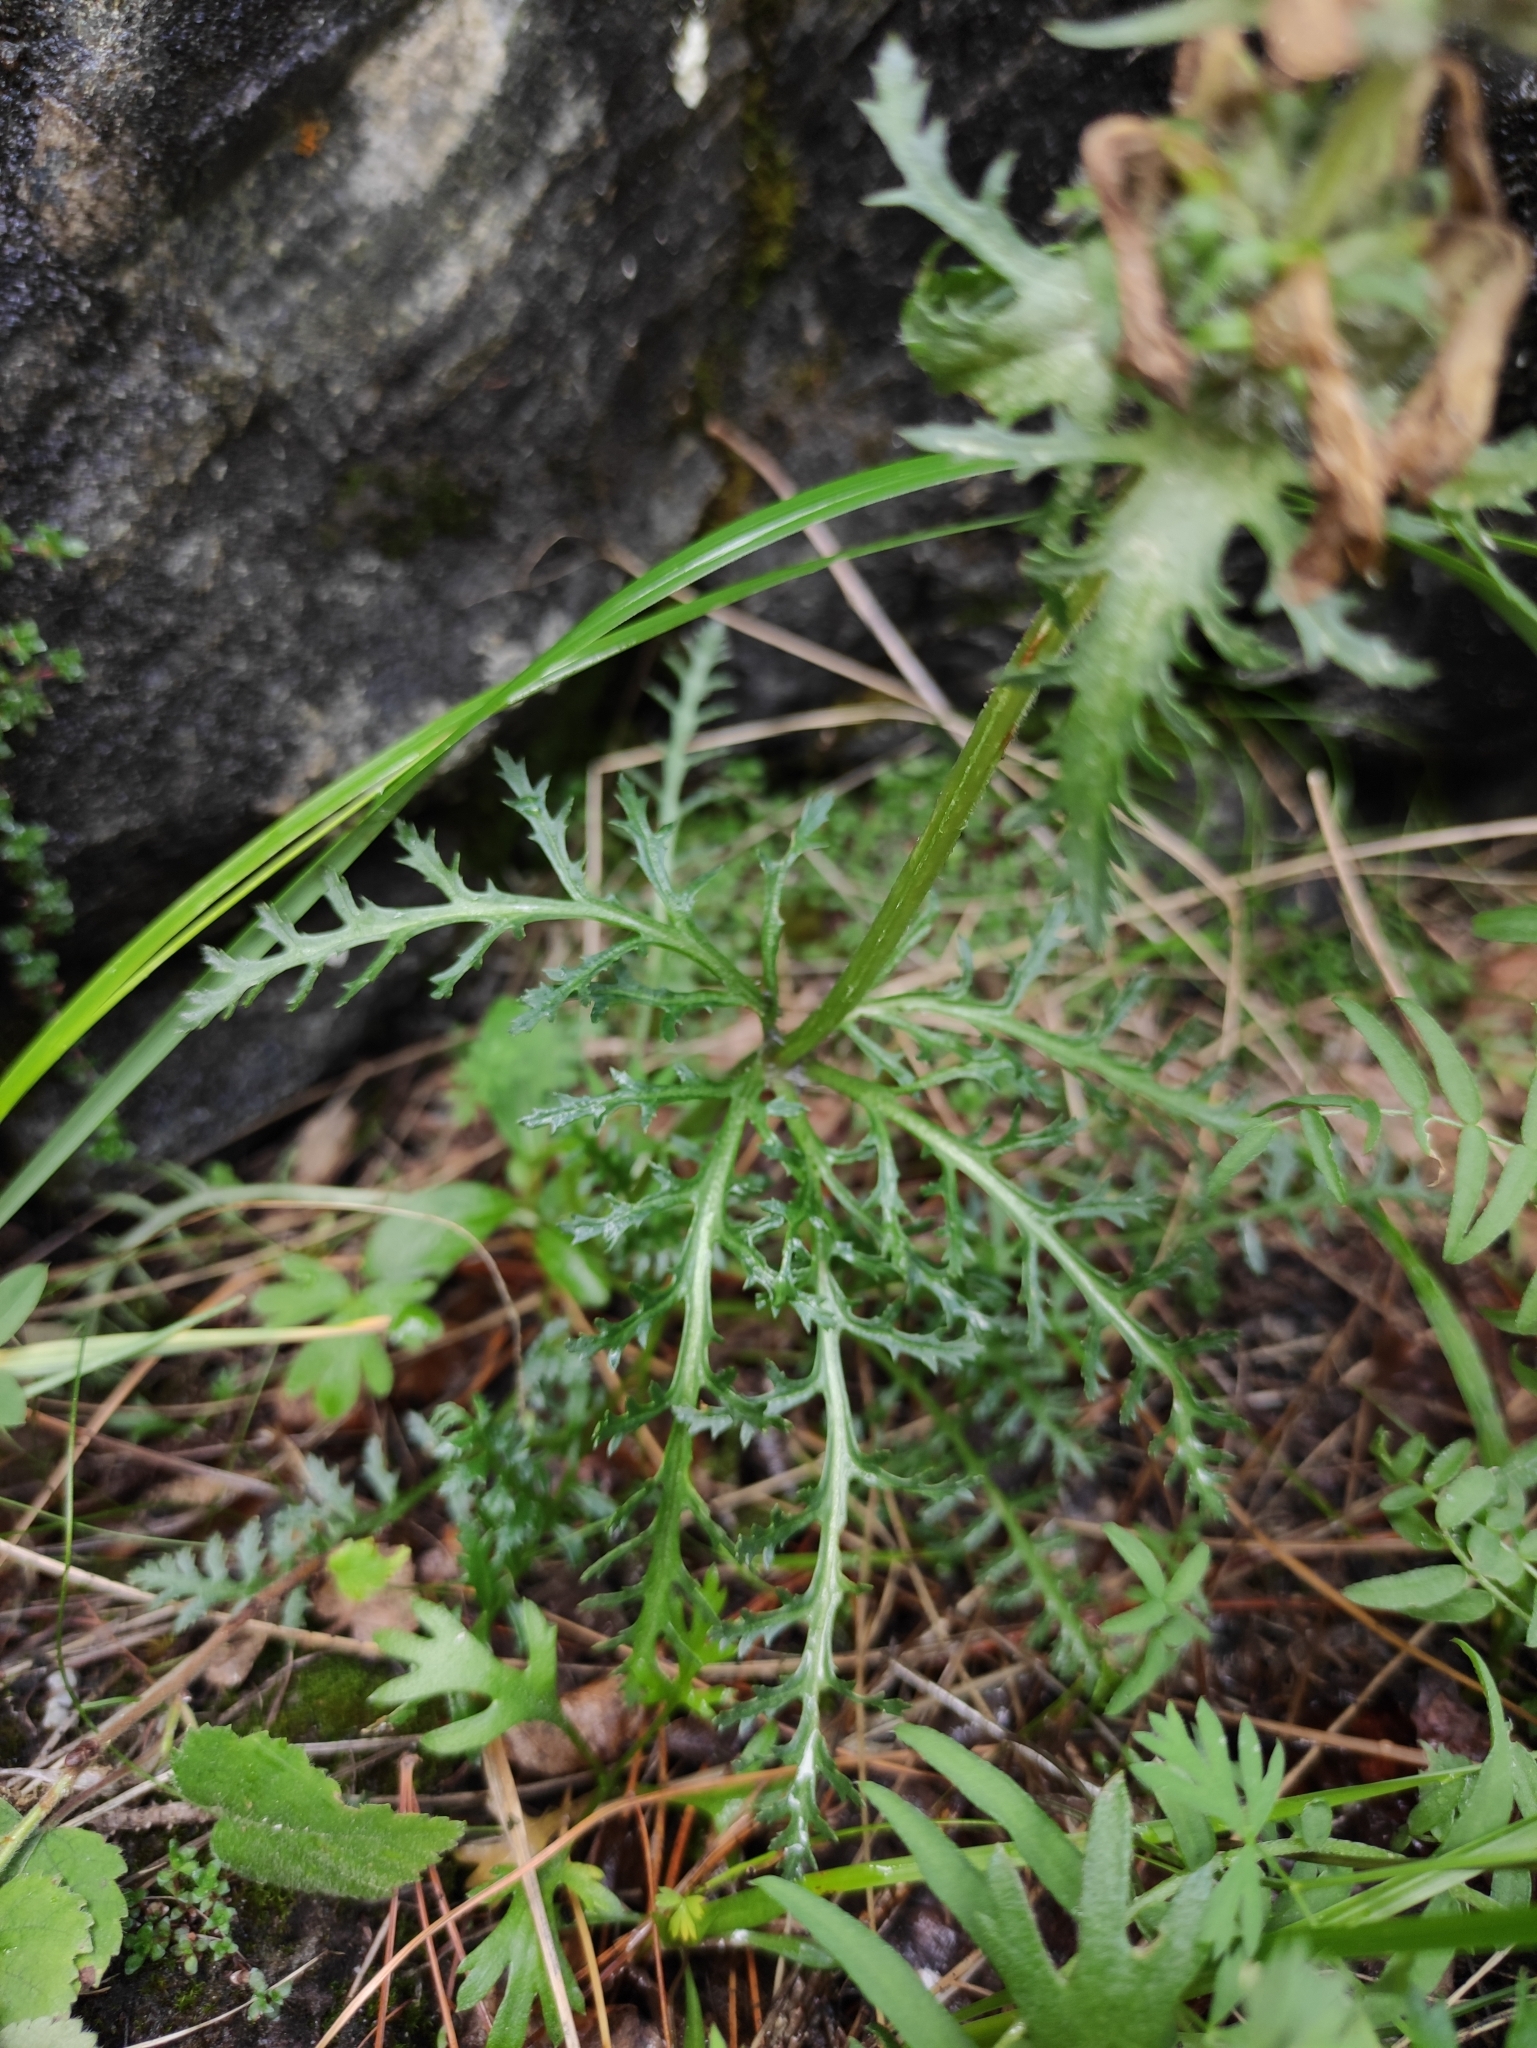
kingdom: Plantae
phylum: Tracheophyta
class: Magnoliopsida
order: Lamiales
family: Orobanchaceae
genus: Pedicularis
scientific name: Pedicularis verticillata
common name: Whorled lousewort
